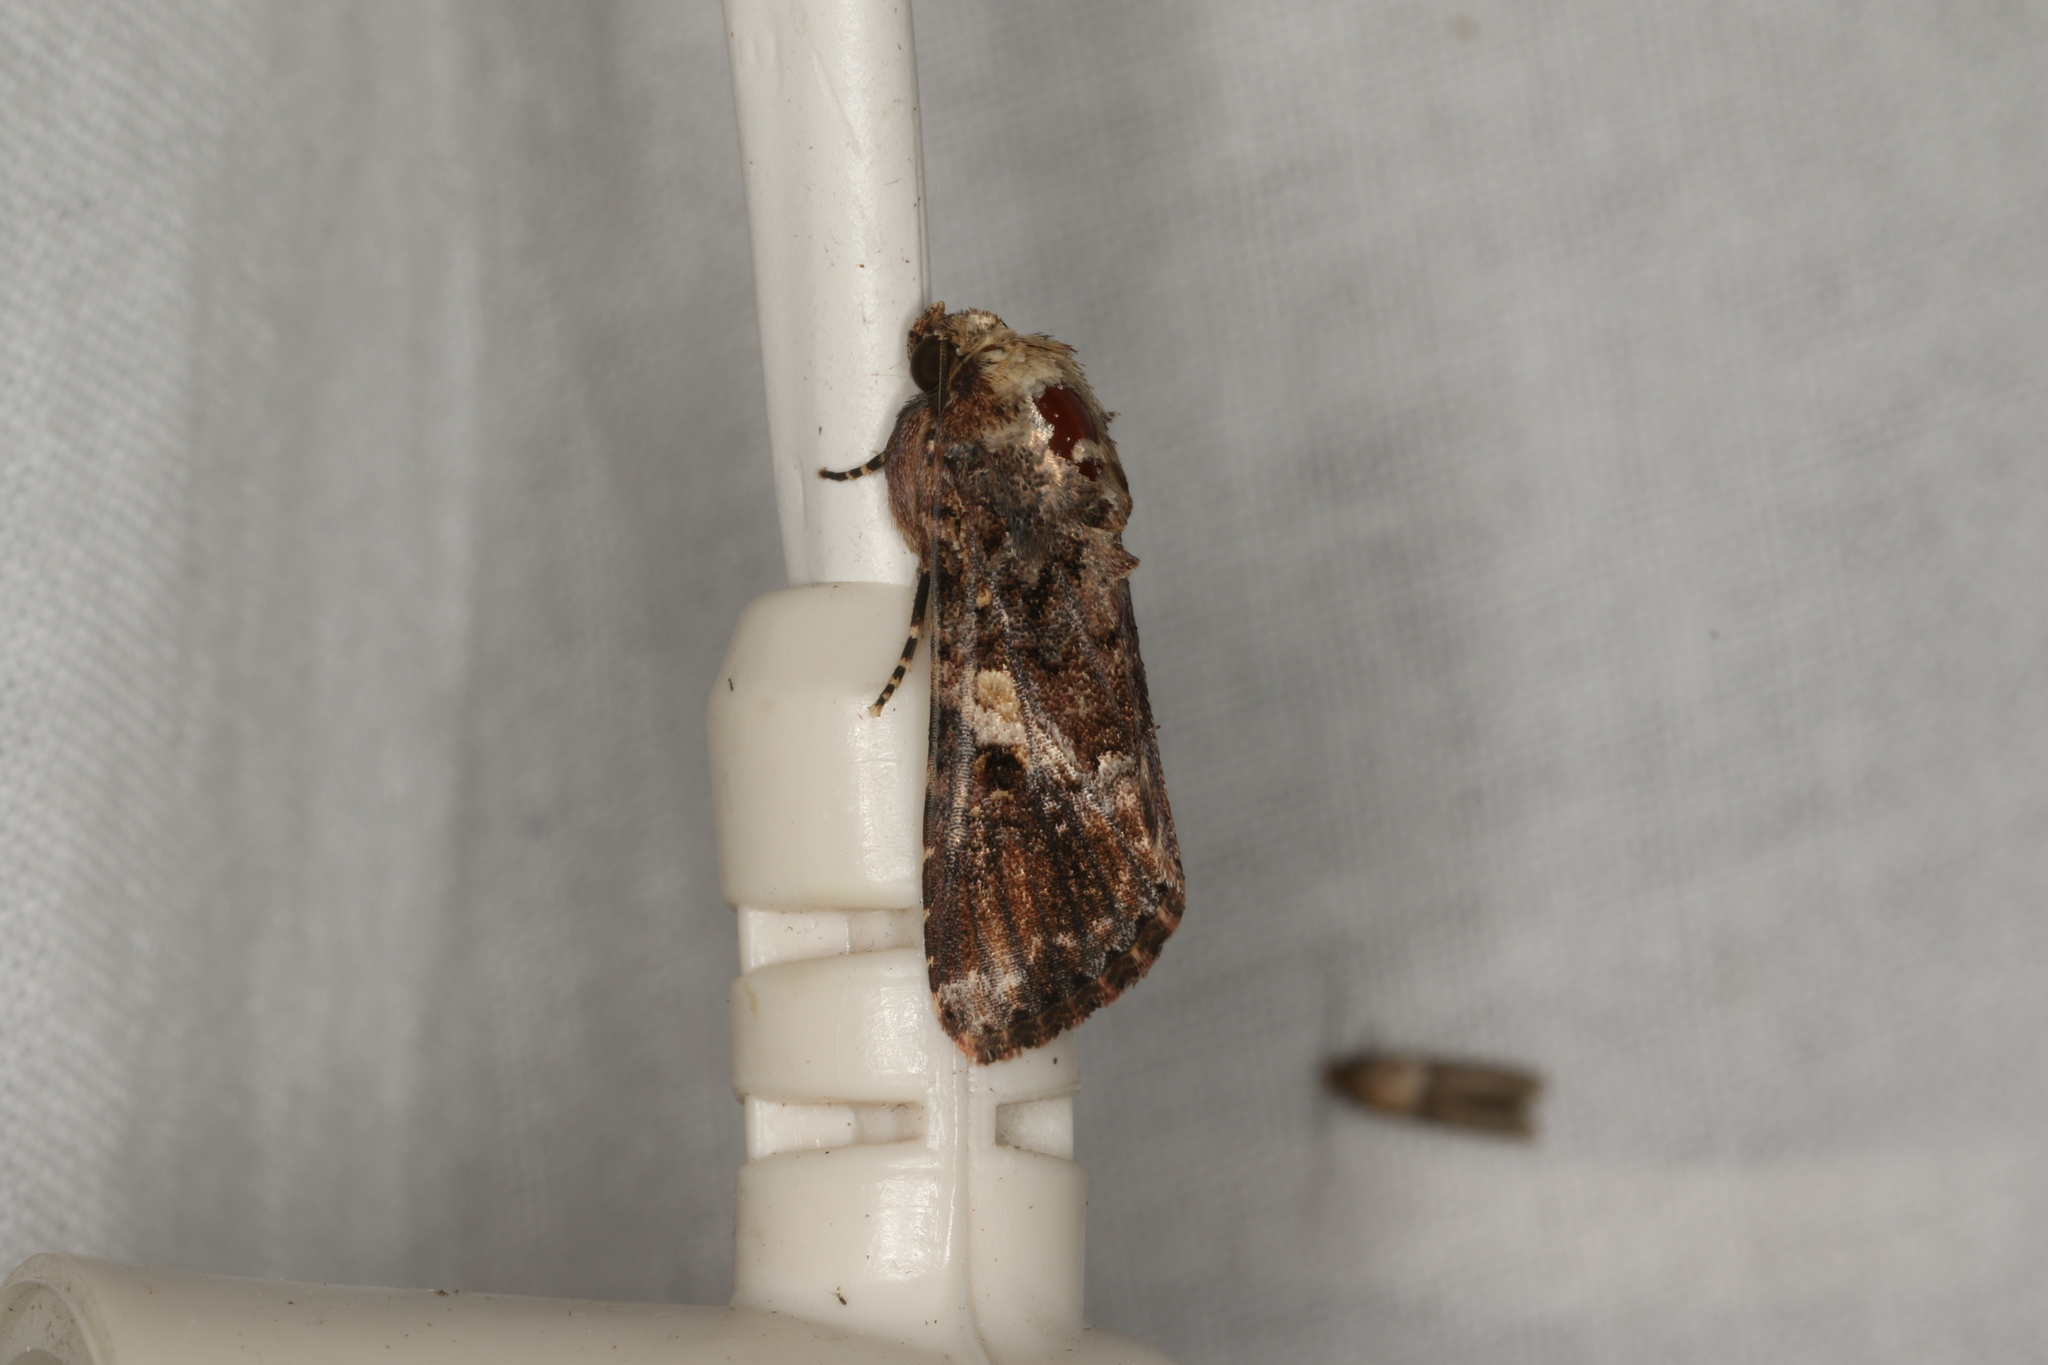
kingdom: Animalia
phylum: Arthropoda
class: Insecta
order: Lepidoptera
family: Noctuidae
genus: Spodoptera
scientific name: Spodoptera mauritia
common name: Lawn armyworm
